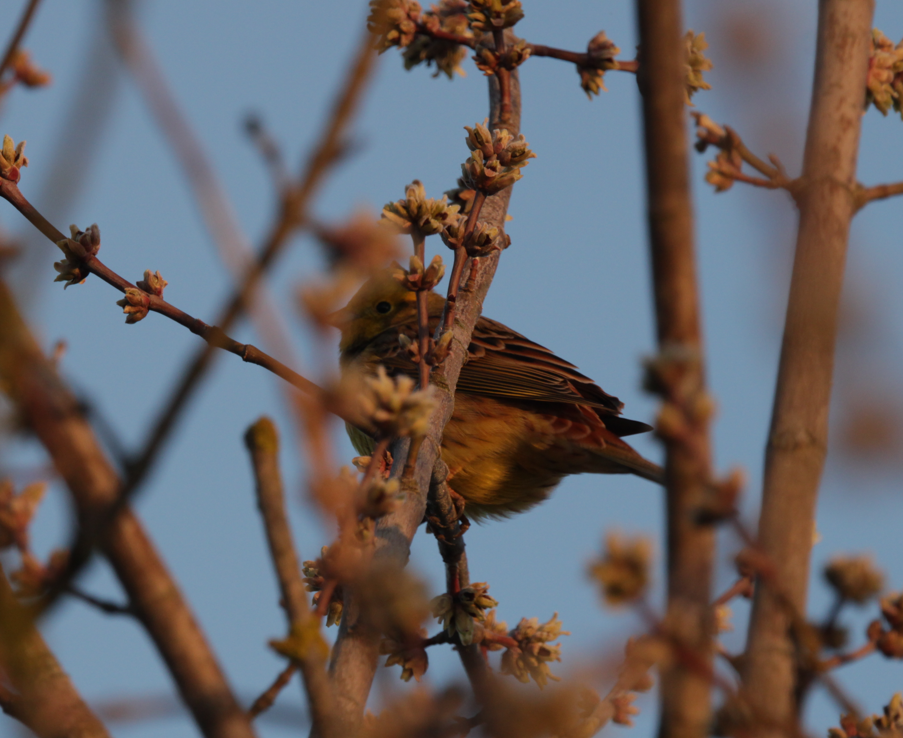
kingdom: Animalia
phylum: Chordata
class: Aves
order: Passeriformes
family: Emberizidae
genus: Emberiza
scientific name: Emberiza citrinella
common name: Yellowhammer
